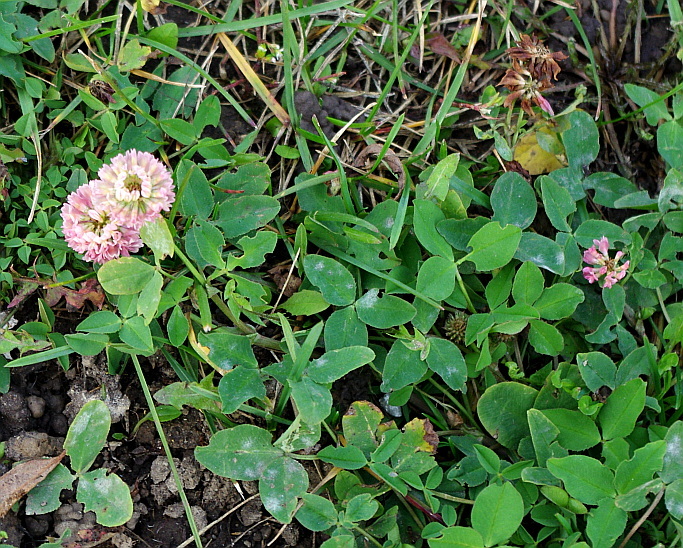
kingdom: Plantae
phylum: Tracheophyta
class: Magnoliopsida
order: Fabales
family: Fabaceae
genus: Trifolium
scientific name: Trifolium hybridum
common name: Alsike clover
